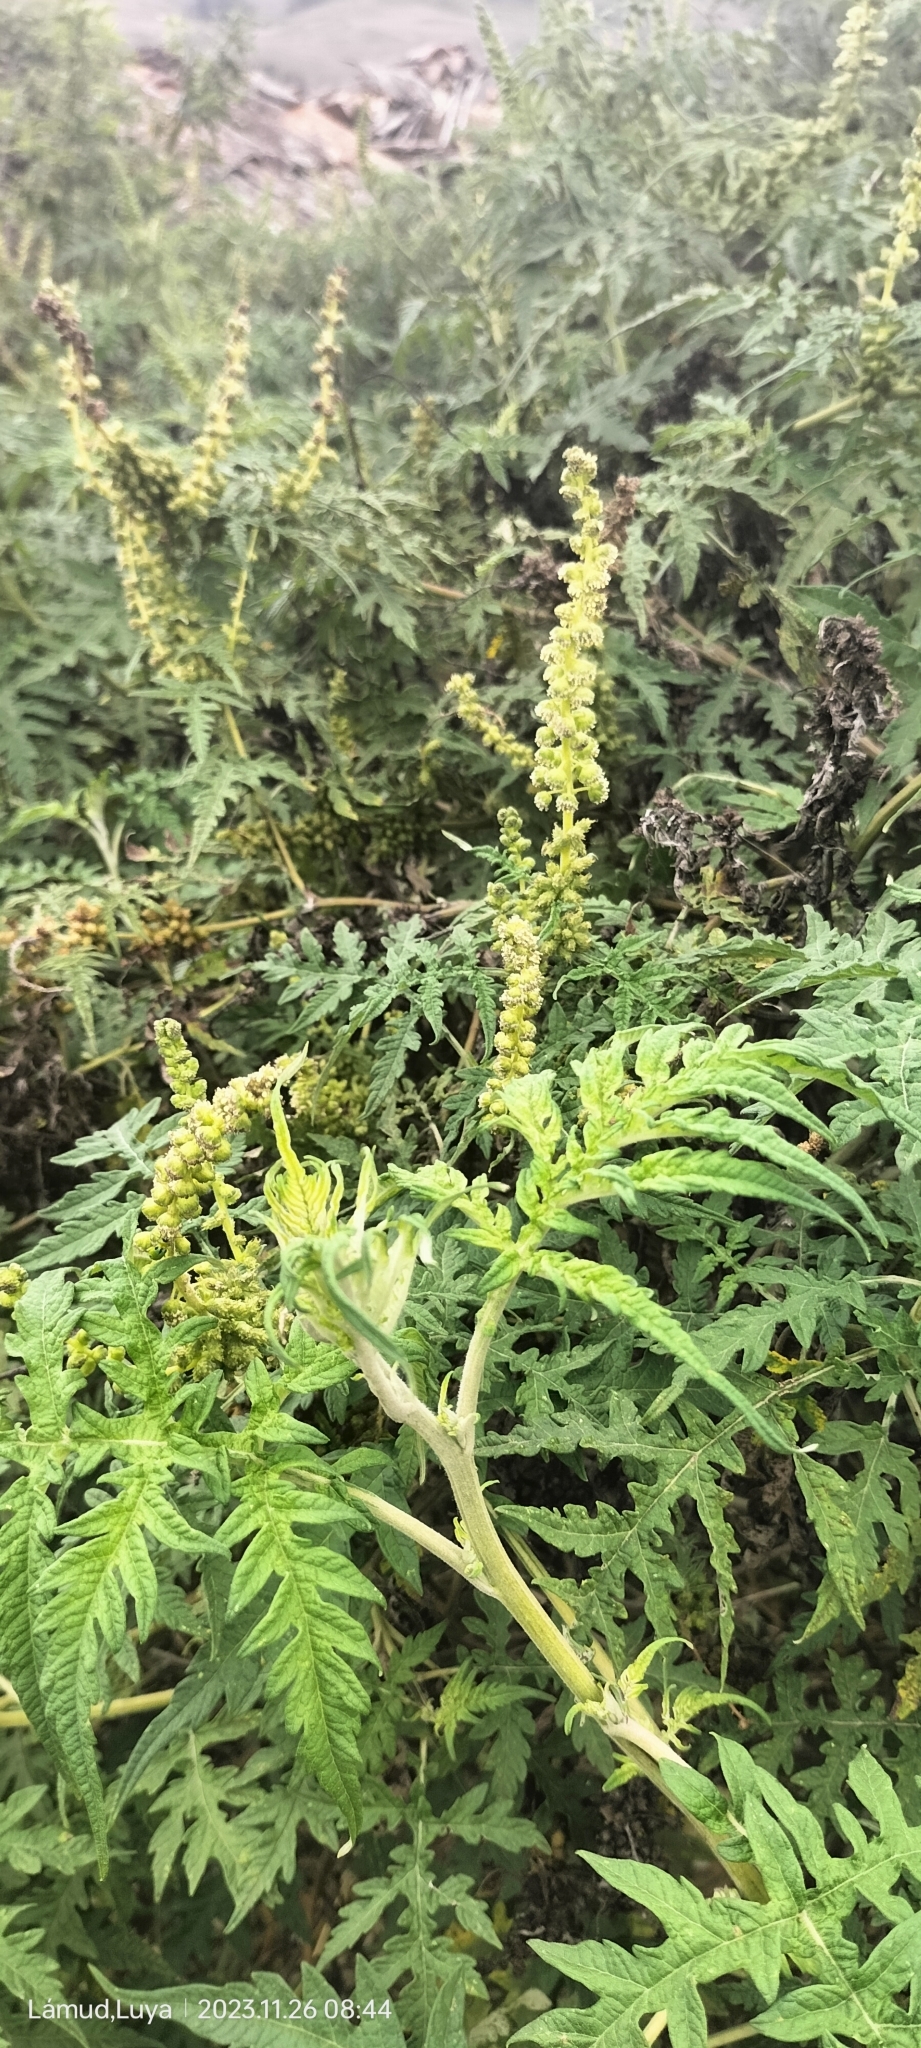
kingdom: Plantae
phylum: Tracheophyta
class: Magnoliopsida
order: Asterales
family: Asteraceae
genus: Ambrosia
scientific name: Ambrosia arborescens
